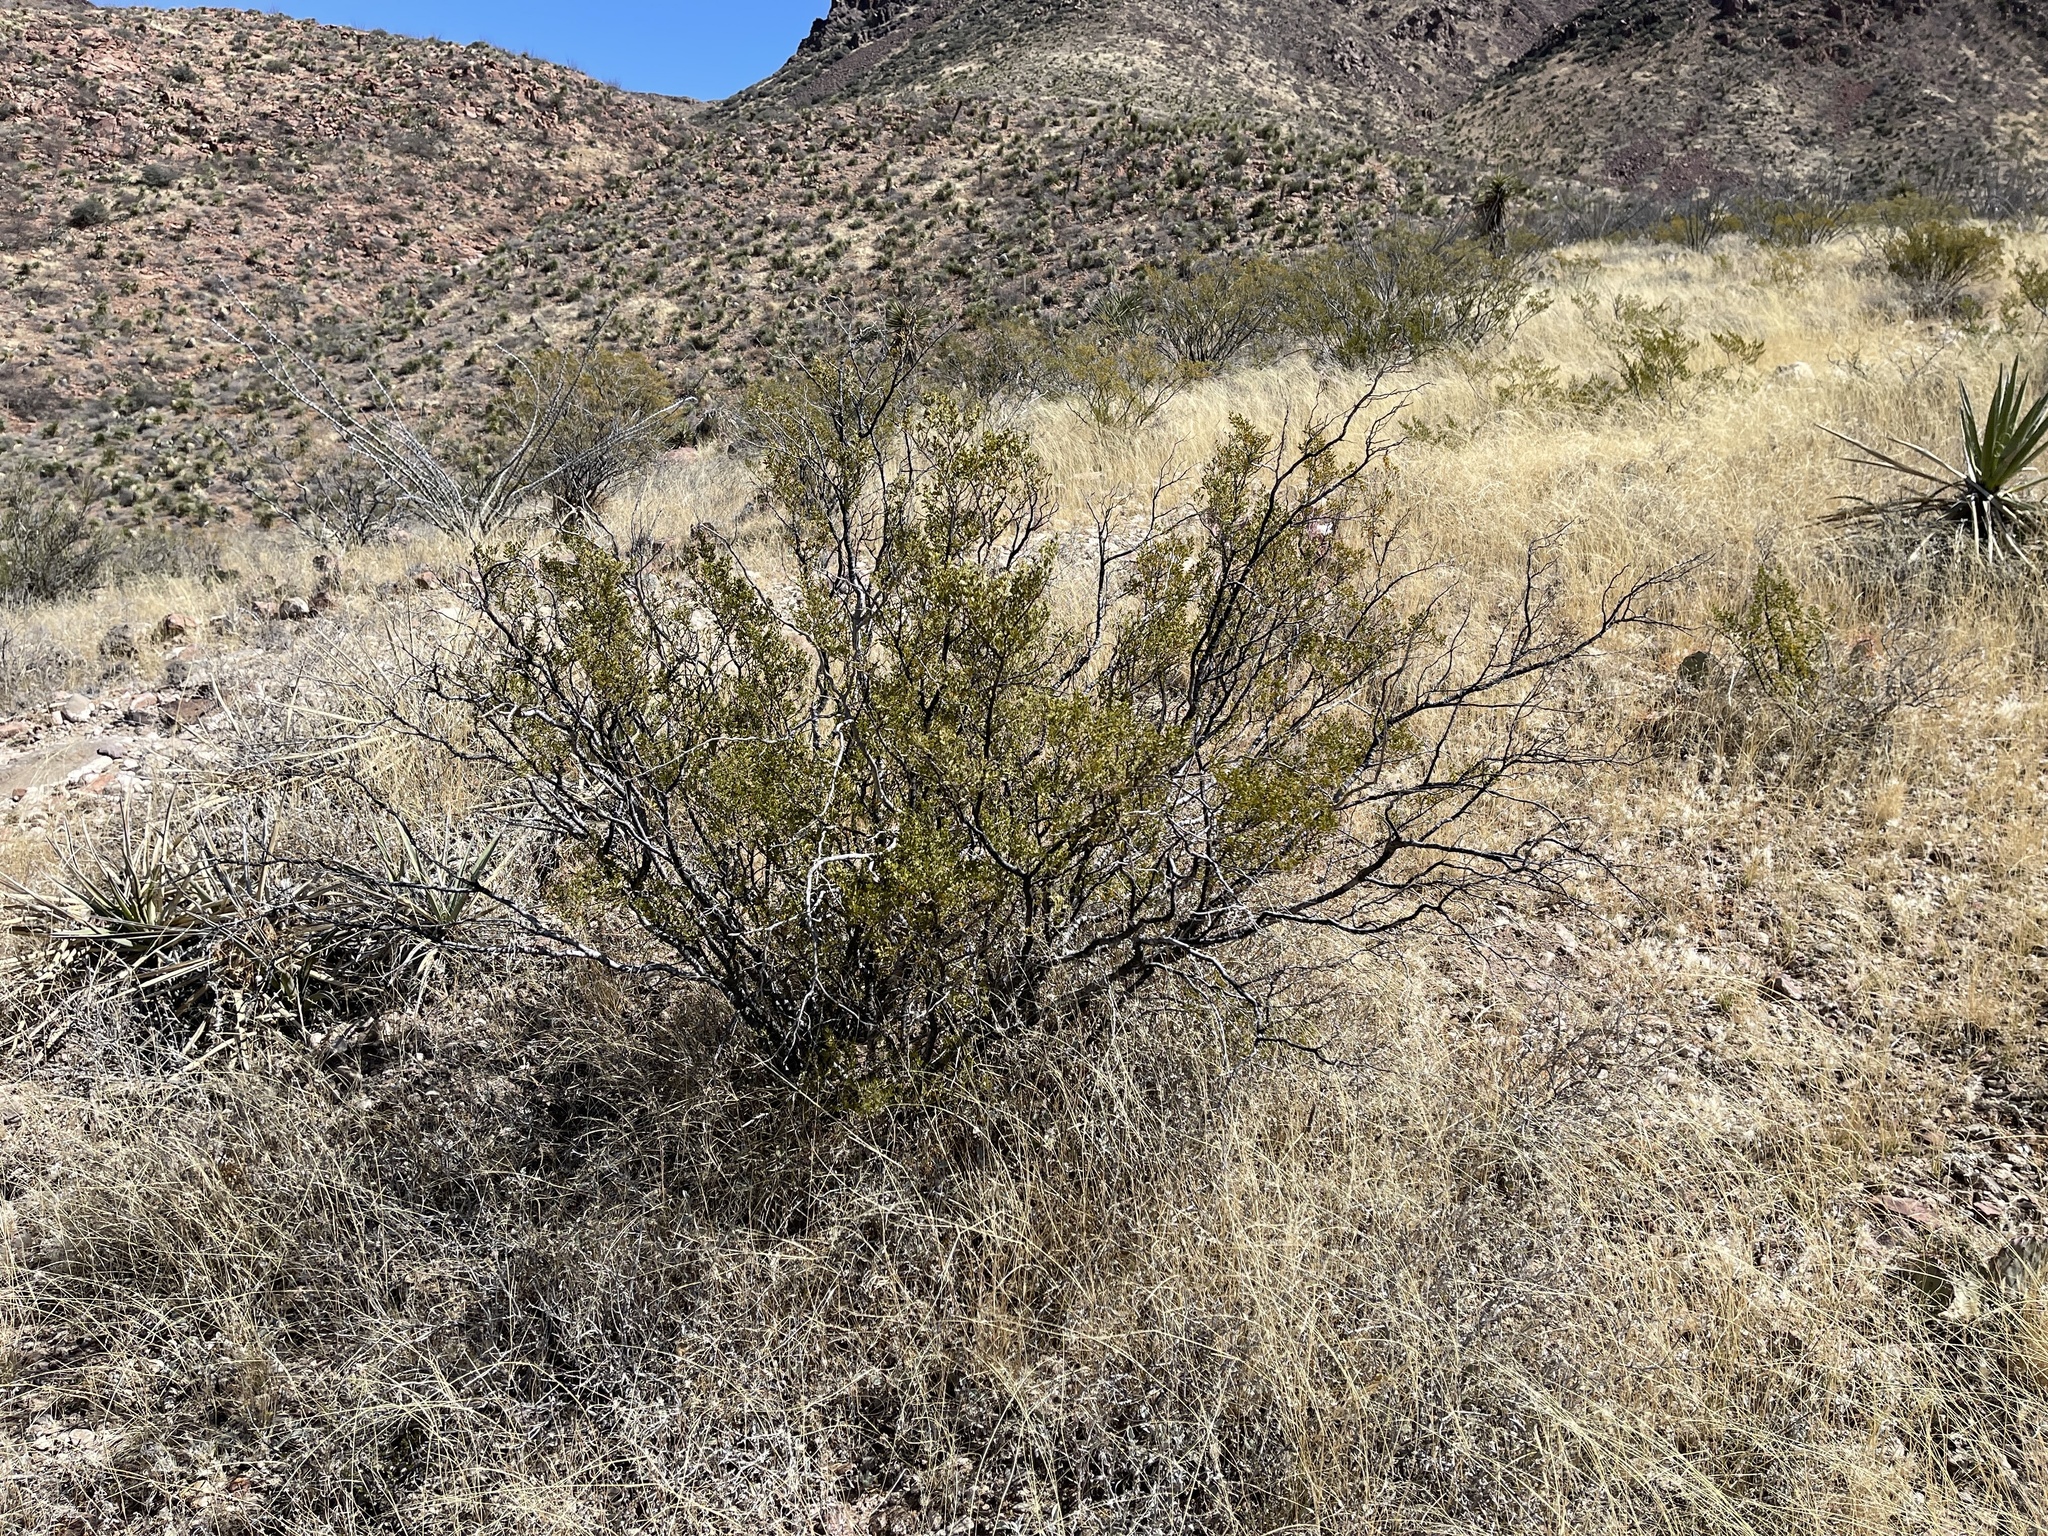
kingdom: Plantae
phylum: Tracheophyta
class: Magnoliopsida
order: Zygophyllales
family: Zygophyllaceae
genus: Larrea
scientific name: Larrea tridentata
